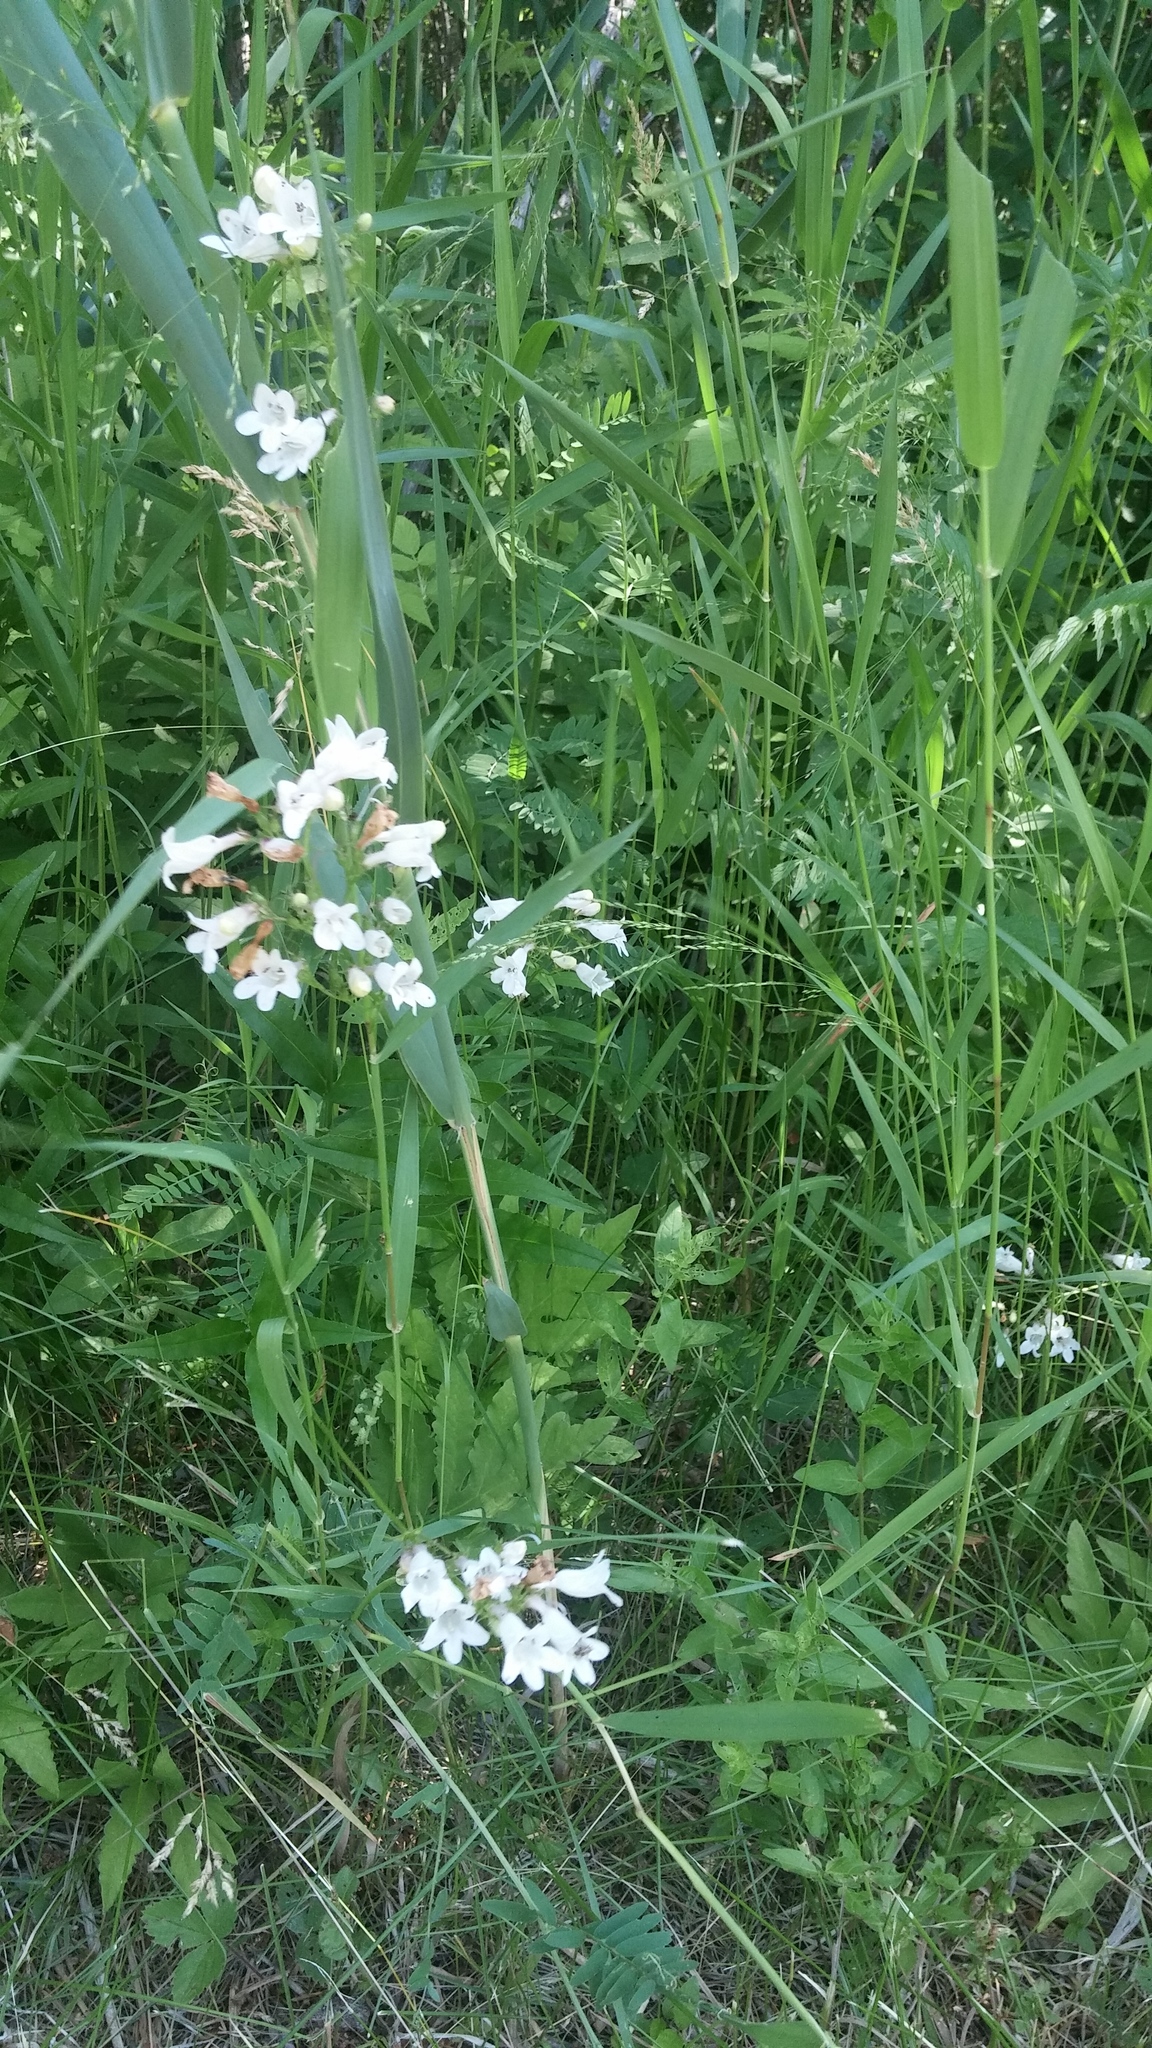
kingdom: Plantae
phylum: Tracheophyta
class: Magnoliopsida
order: Lamiales
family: Plantaginaceae
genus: Penstemon
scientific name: Penstemon digitalis
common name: Foxglove beardtongue
